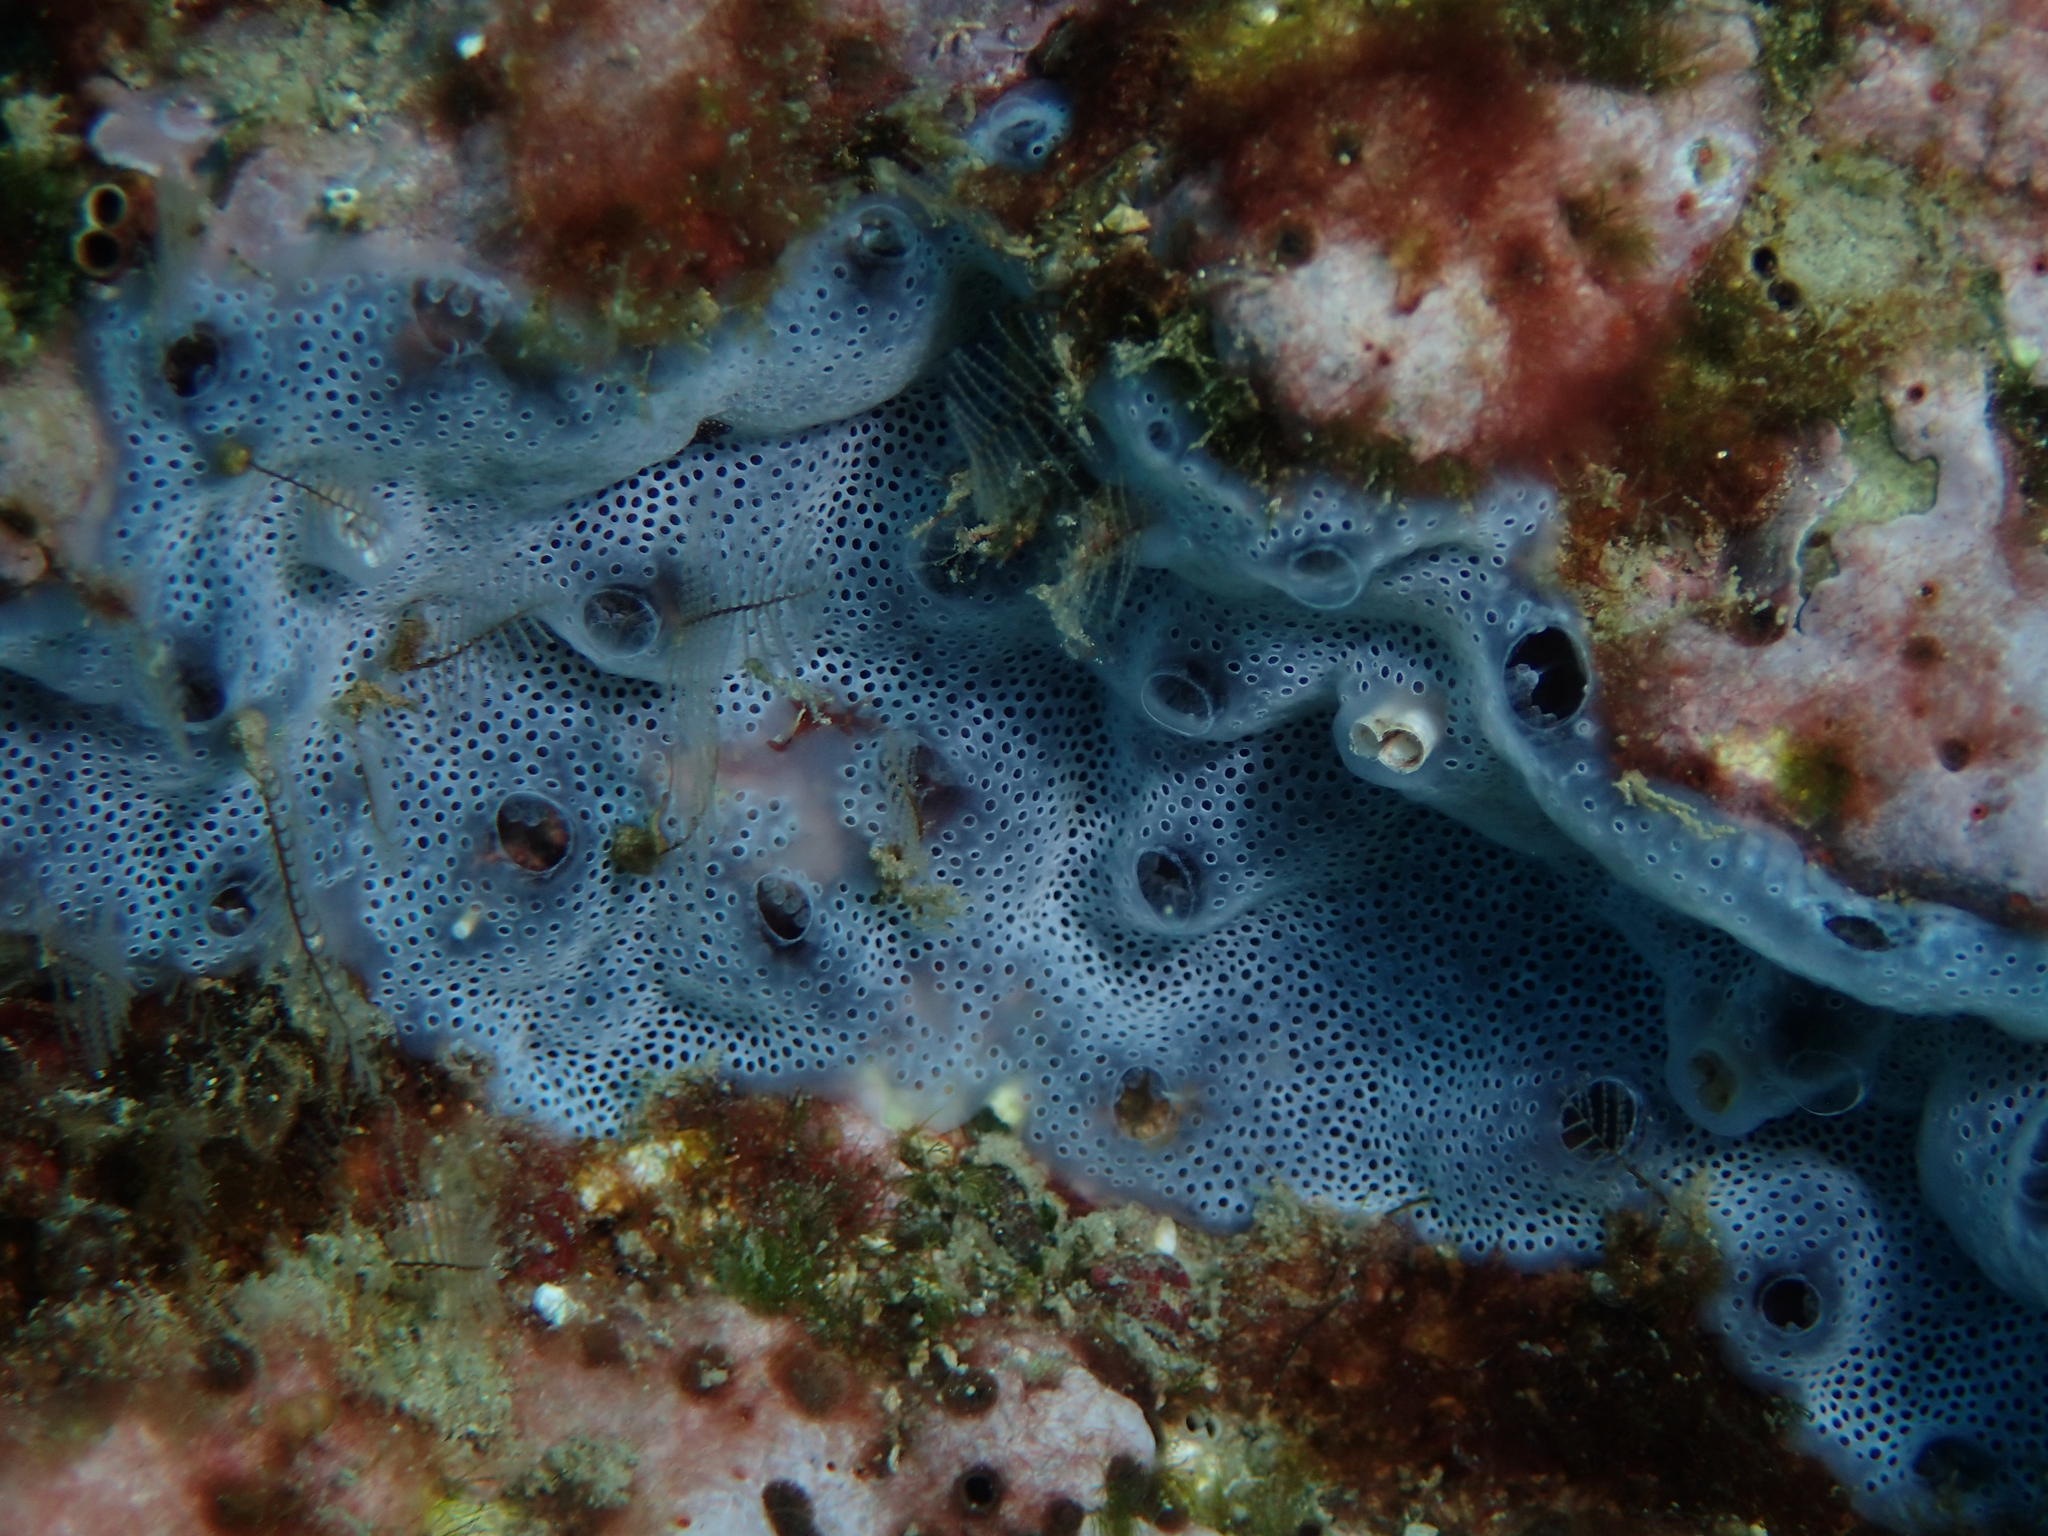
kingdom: Animalia
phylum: Chordata
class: Ascidiacea
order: Aplousobranchia
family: Didemnidae
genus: Diplosoma
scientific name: Diplosoma spongiforme
